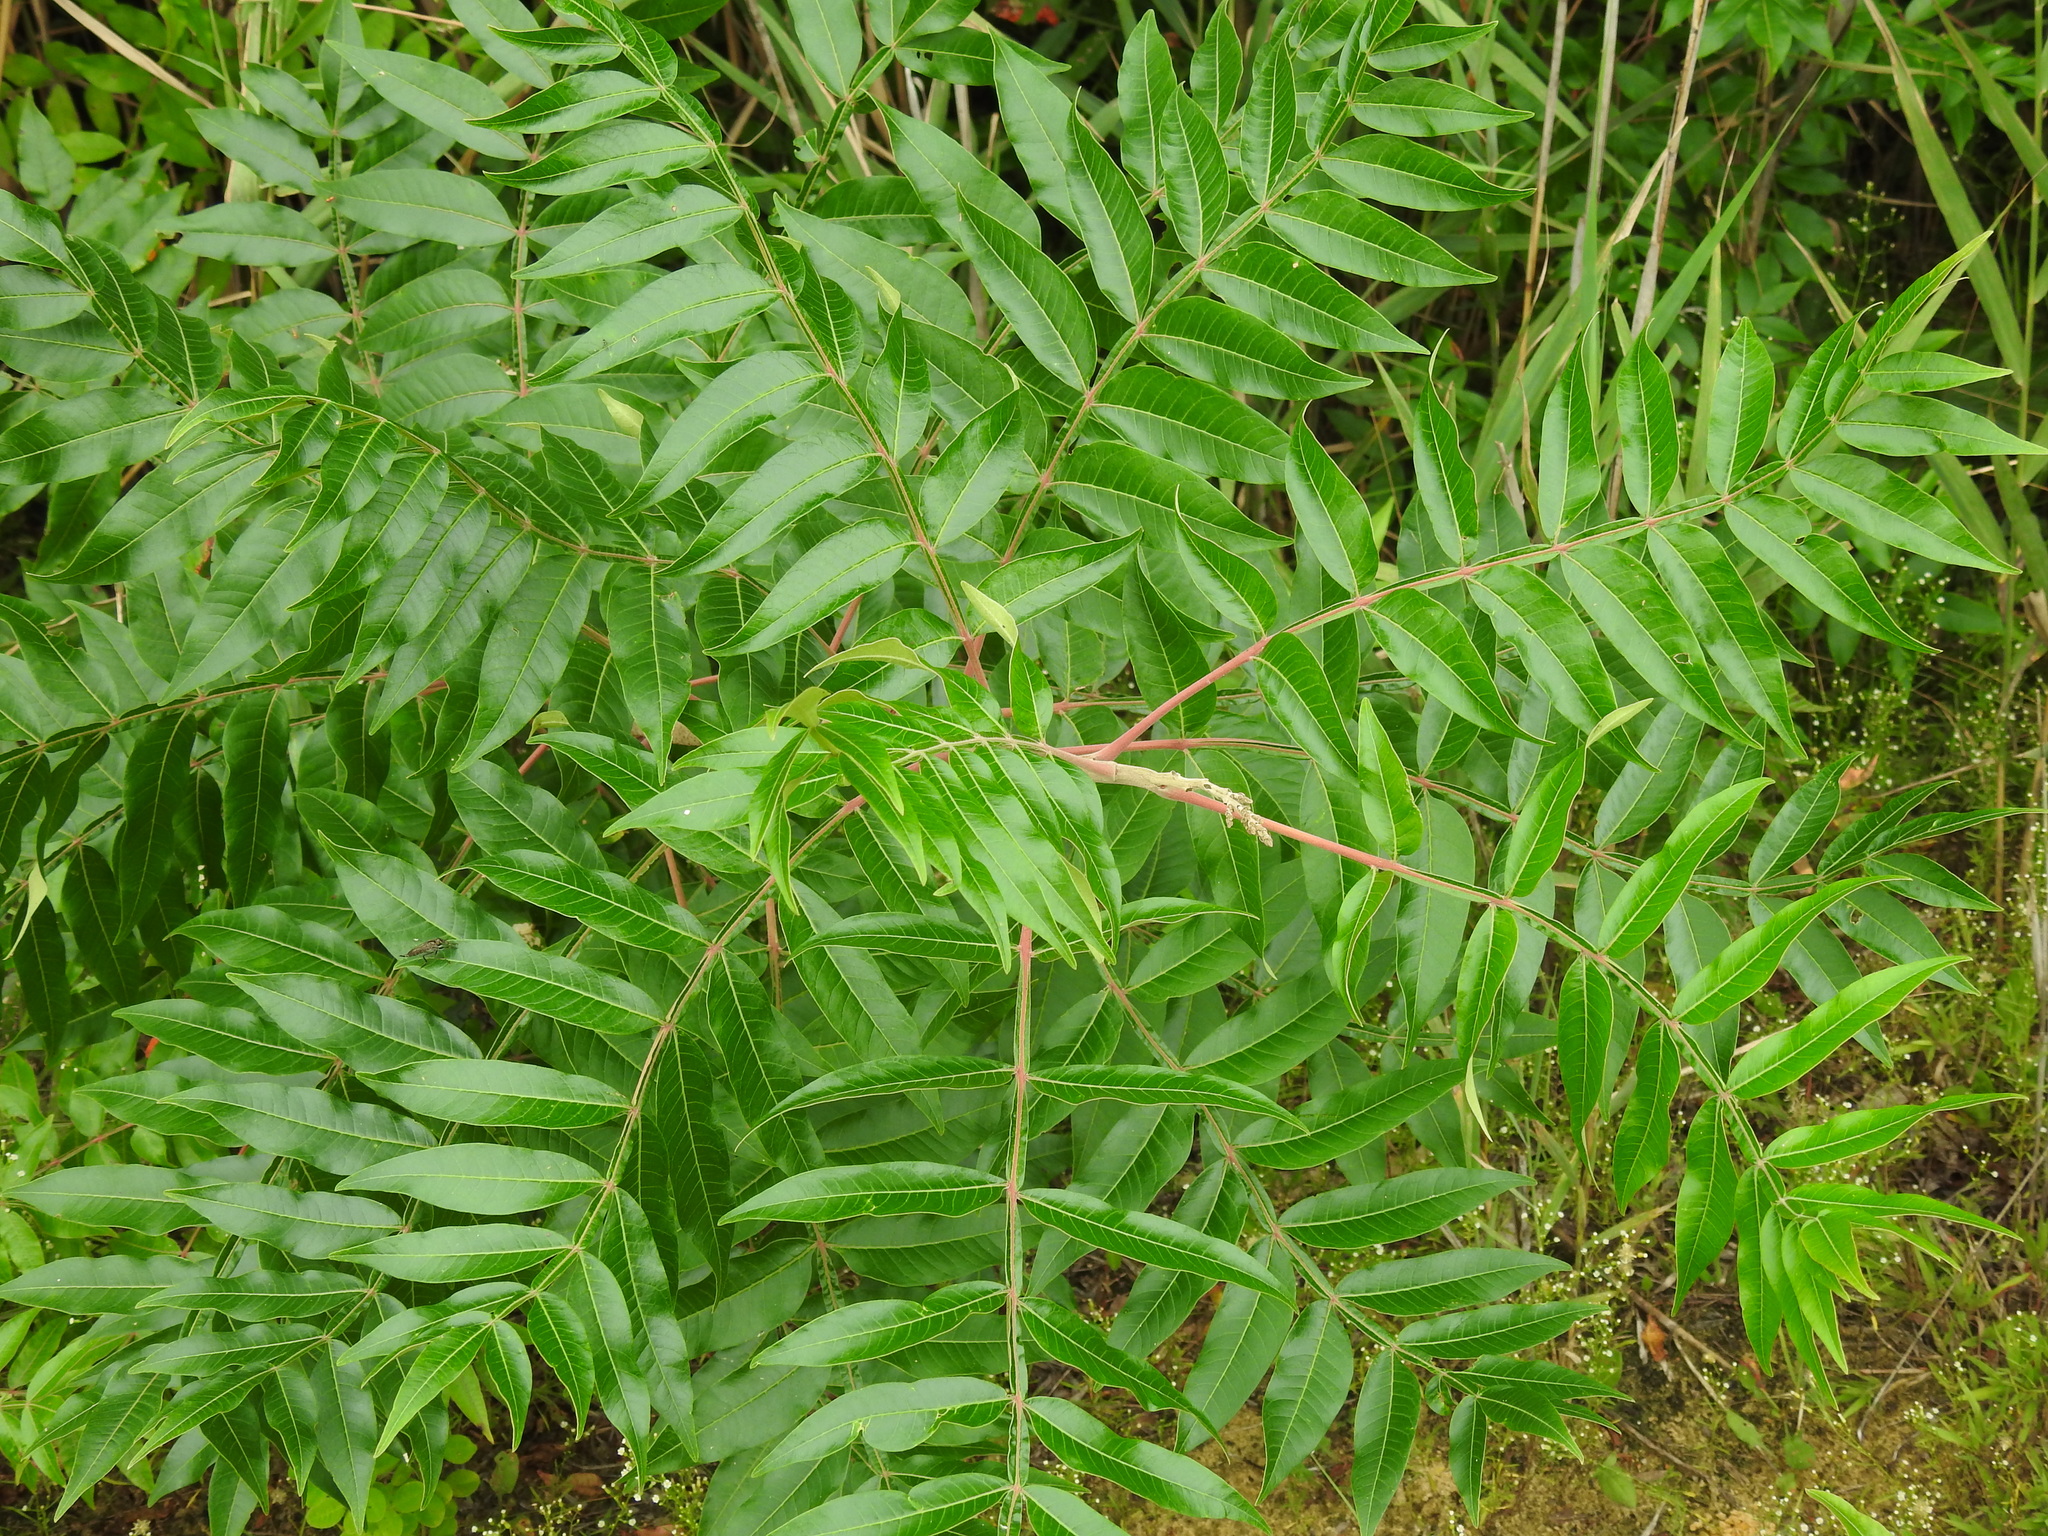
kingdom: Plantae
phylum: Tracheophyta
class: Magnoliopsida
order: Sapindales
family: Anacardiaceae
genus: Rhus
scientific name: Rhus copallina
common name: Shining sumac
